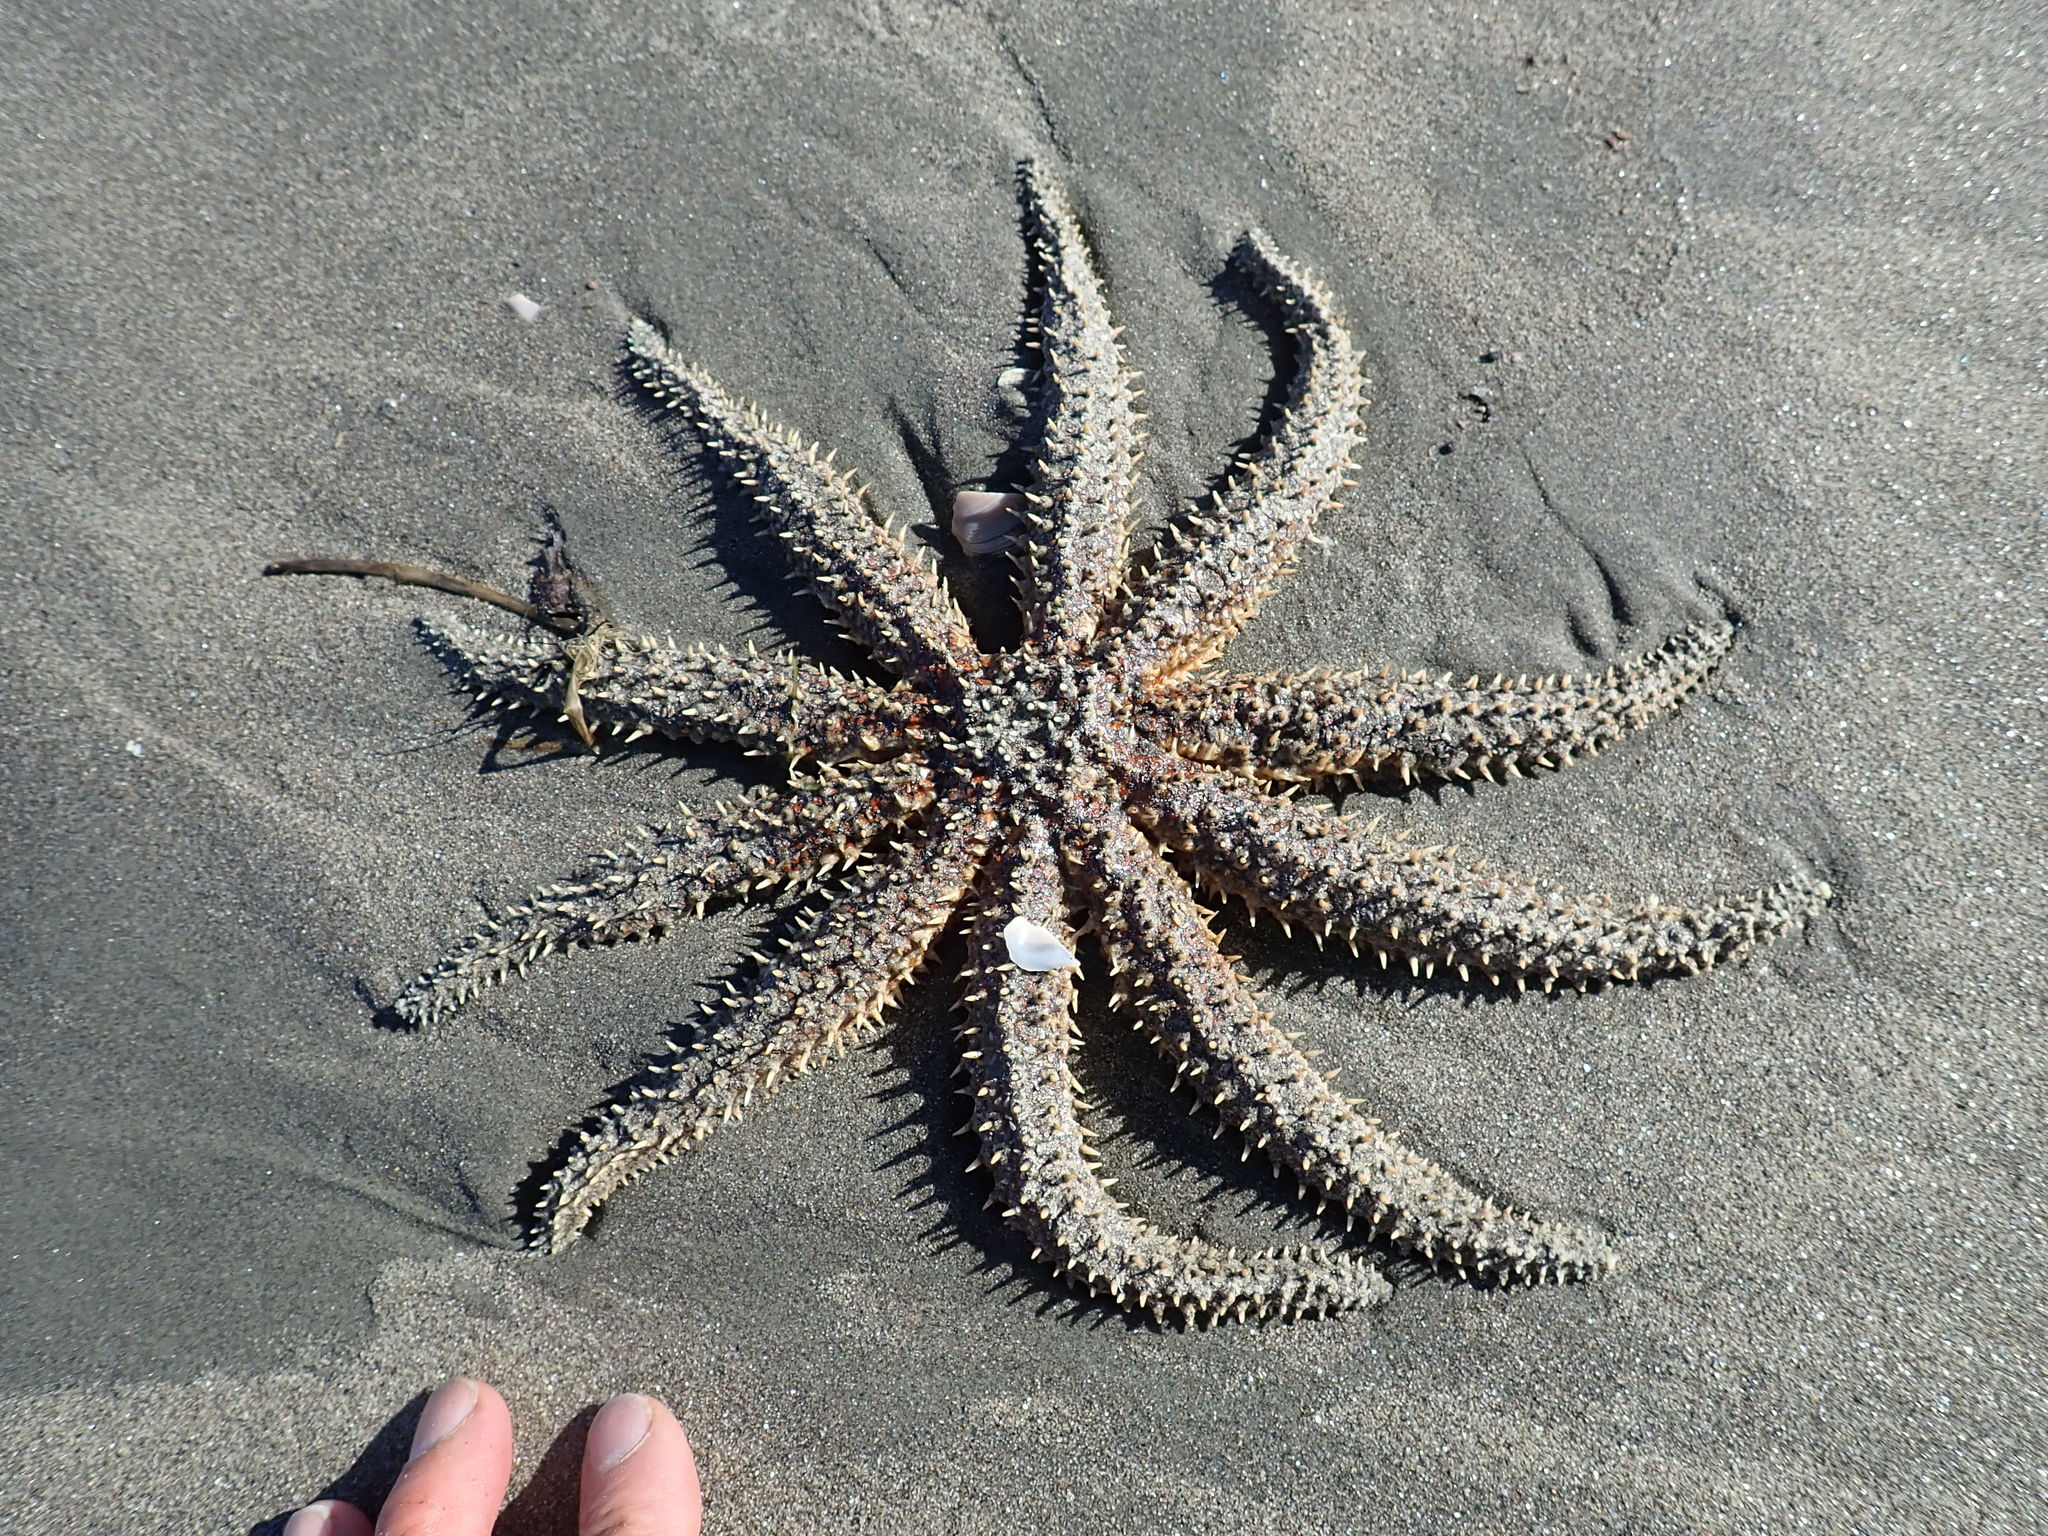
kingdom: Animalia
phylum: Echinodermata
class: Asteroidea
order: Forcipulatida
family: Asteriidae
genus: Coscinasterias
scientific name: Coscinasterias muricata
